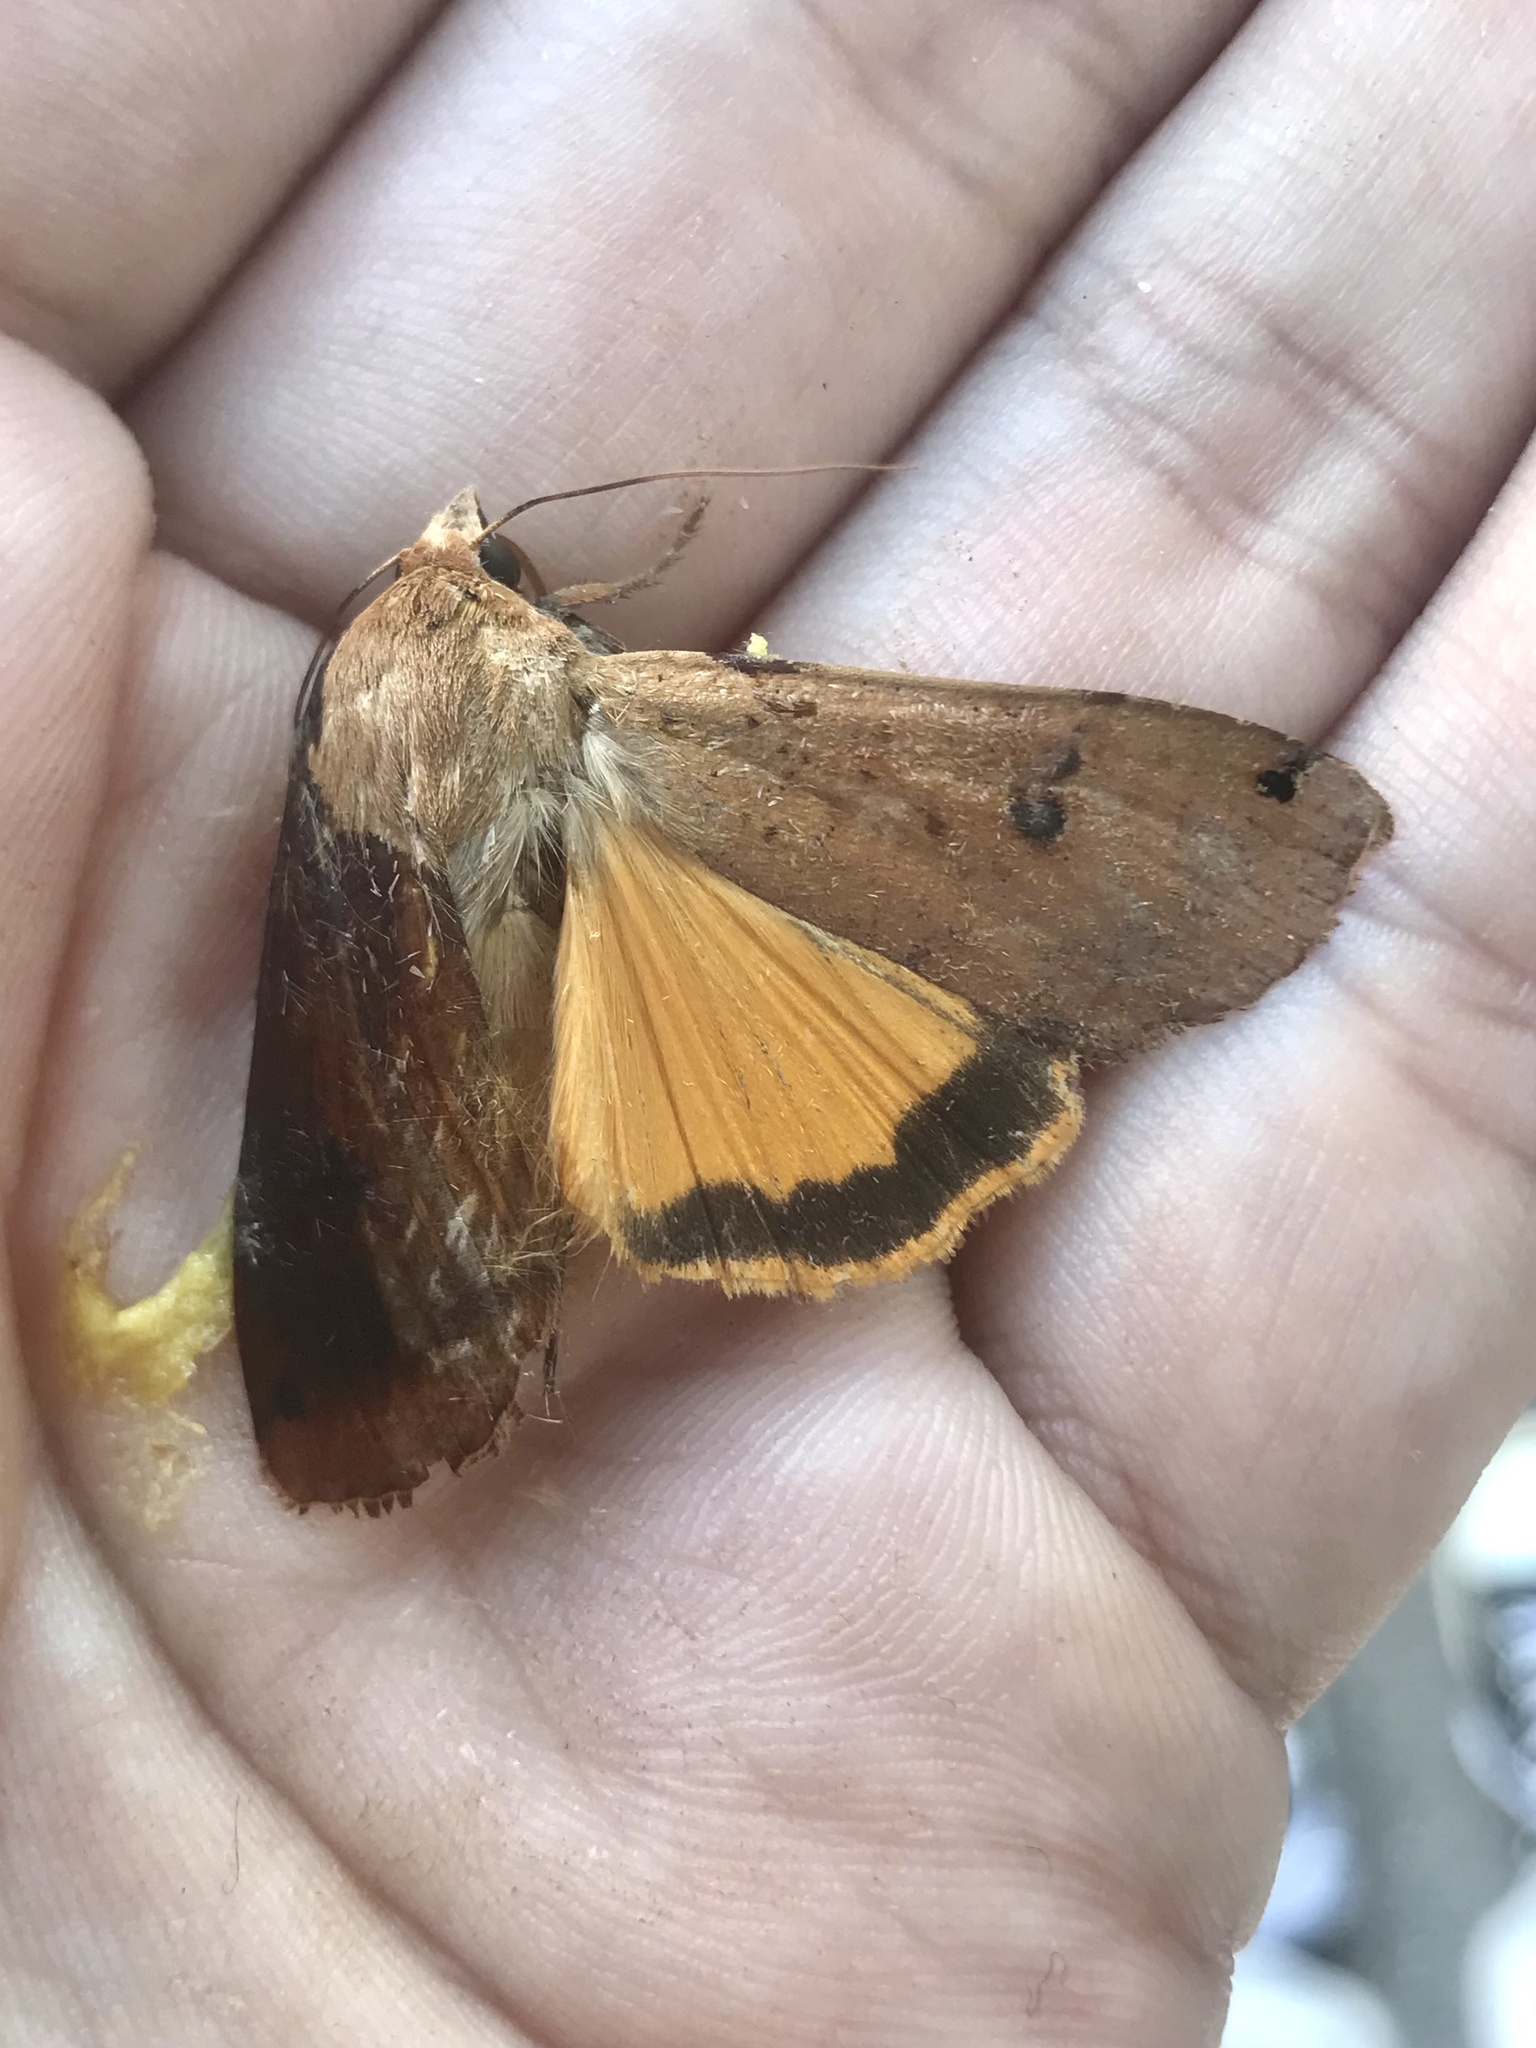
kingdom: Animalia
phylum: Arthropoda
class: Insecta
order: Lepidoptera
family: Noctuidae
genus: Noctua
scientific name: Noctua pronuba
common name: Large yellow underwing
